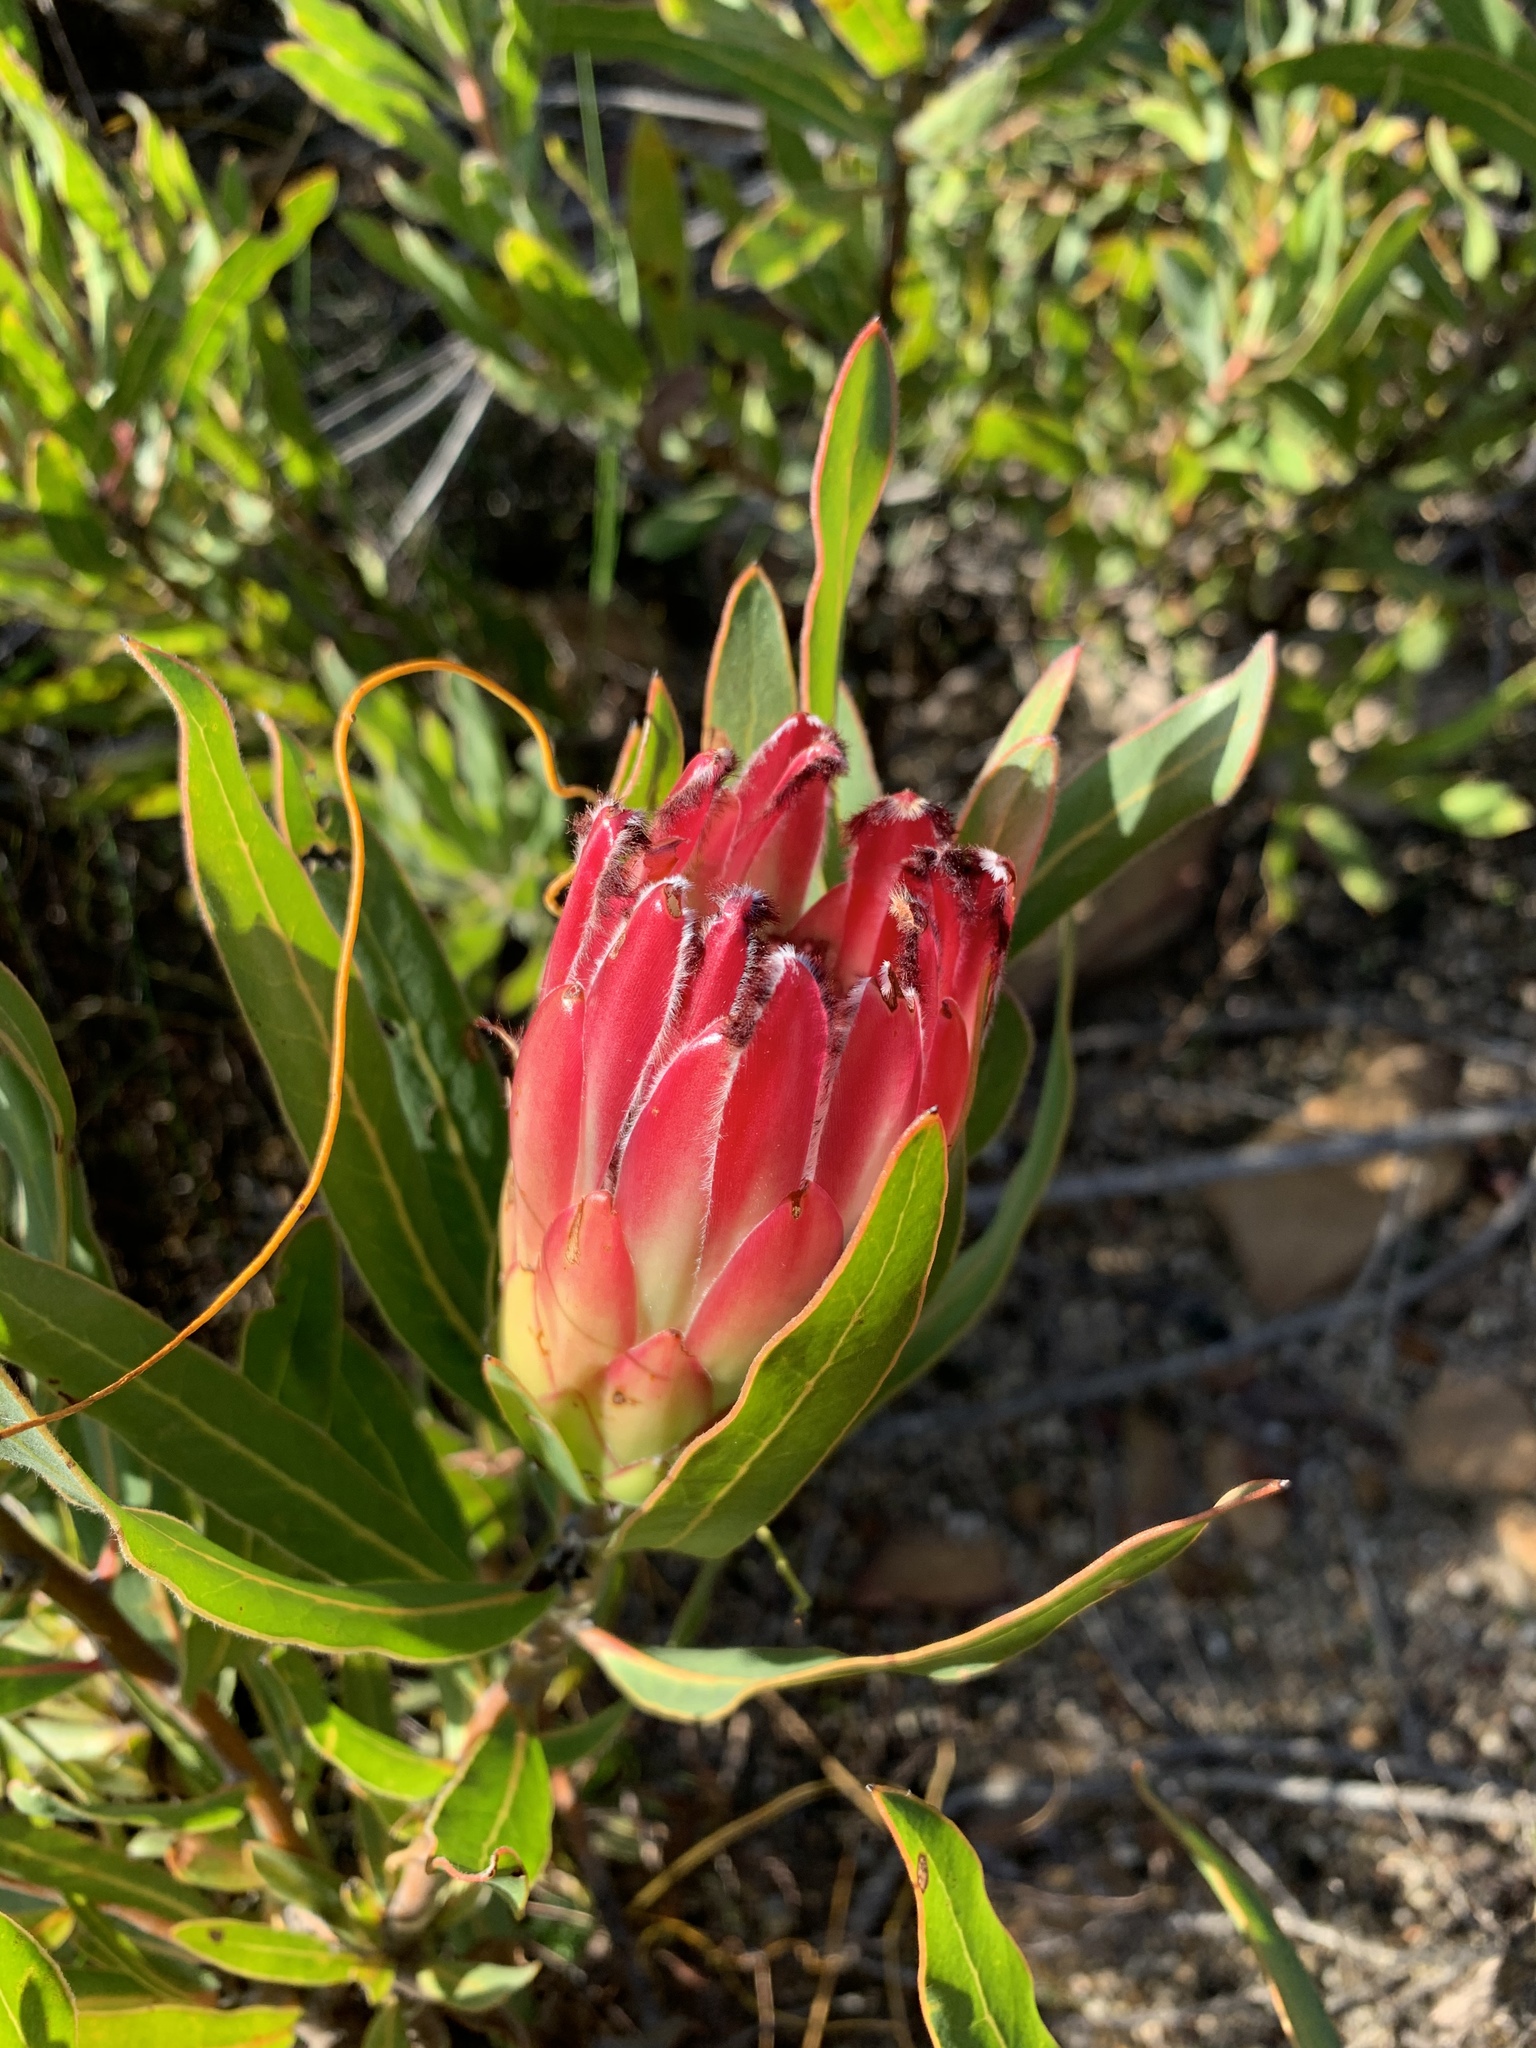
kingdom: Plantae
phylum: Tracheophyta
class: Magnoliopsida
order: Proteales
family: Proteaceae
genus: Protea
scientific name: Protea burchellii
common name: Burchell's sugarbush
